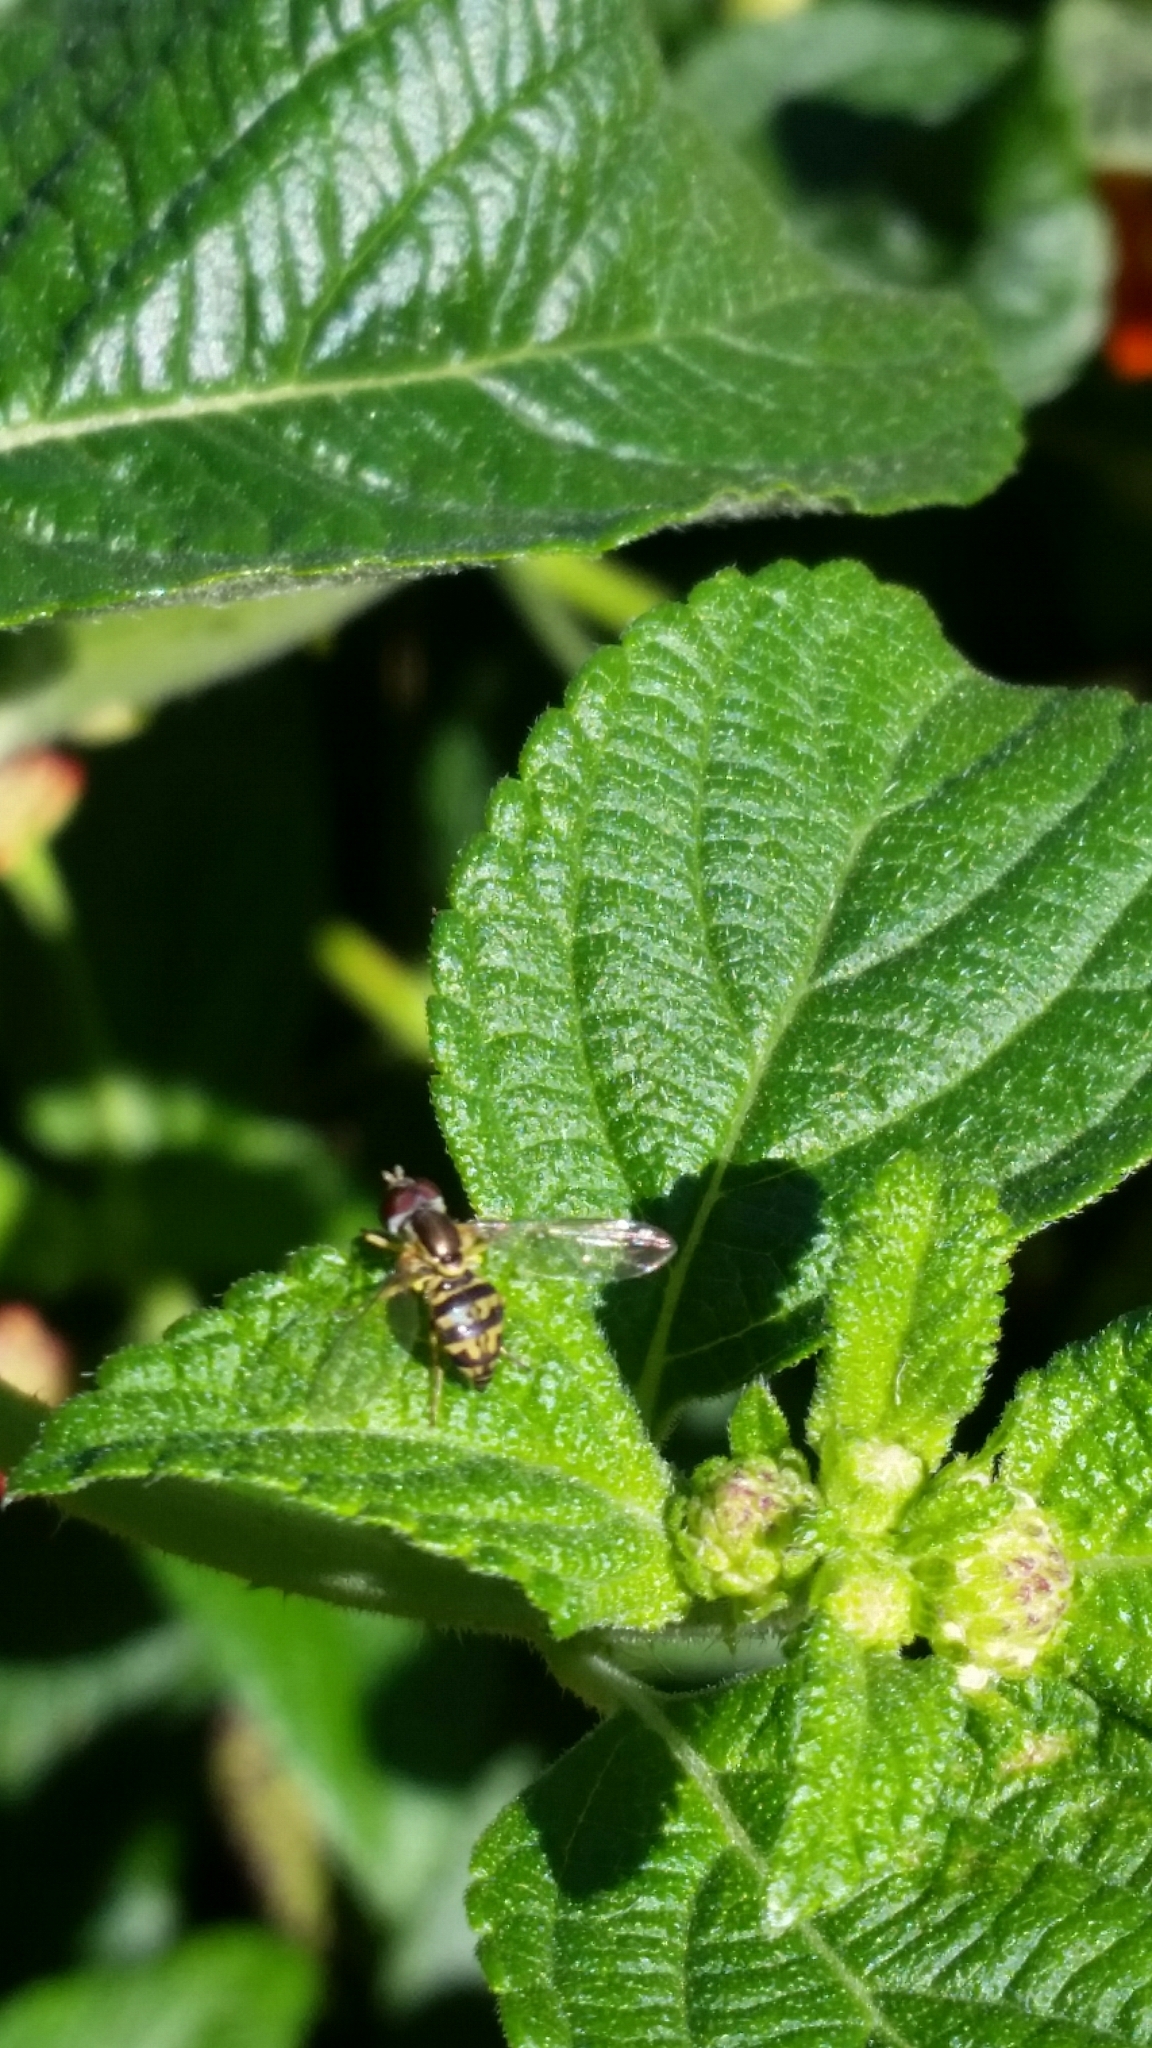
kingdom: Animalia
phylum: Arthropoda
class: Insecta
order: Diptera
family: Syrphidae
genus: Toxomerus
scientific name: Toxomerus geminatus
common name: Eastern calligrapher
